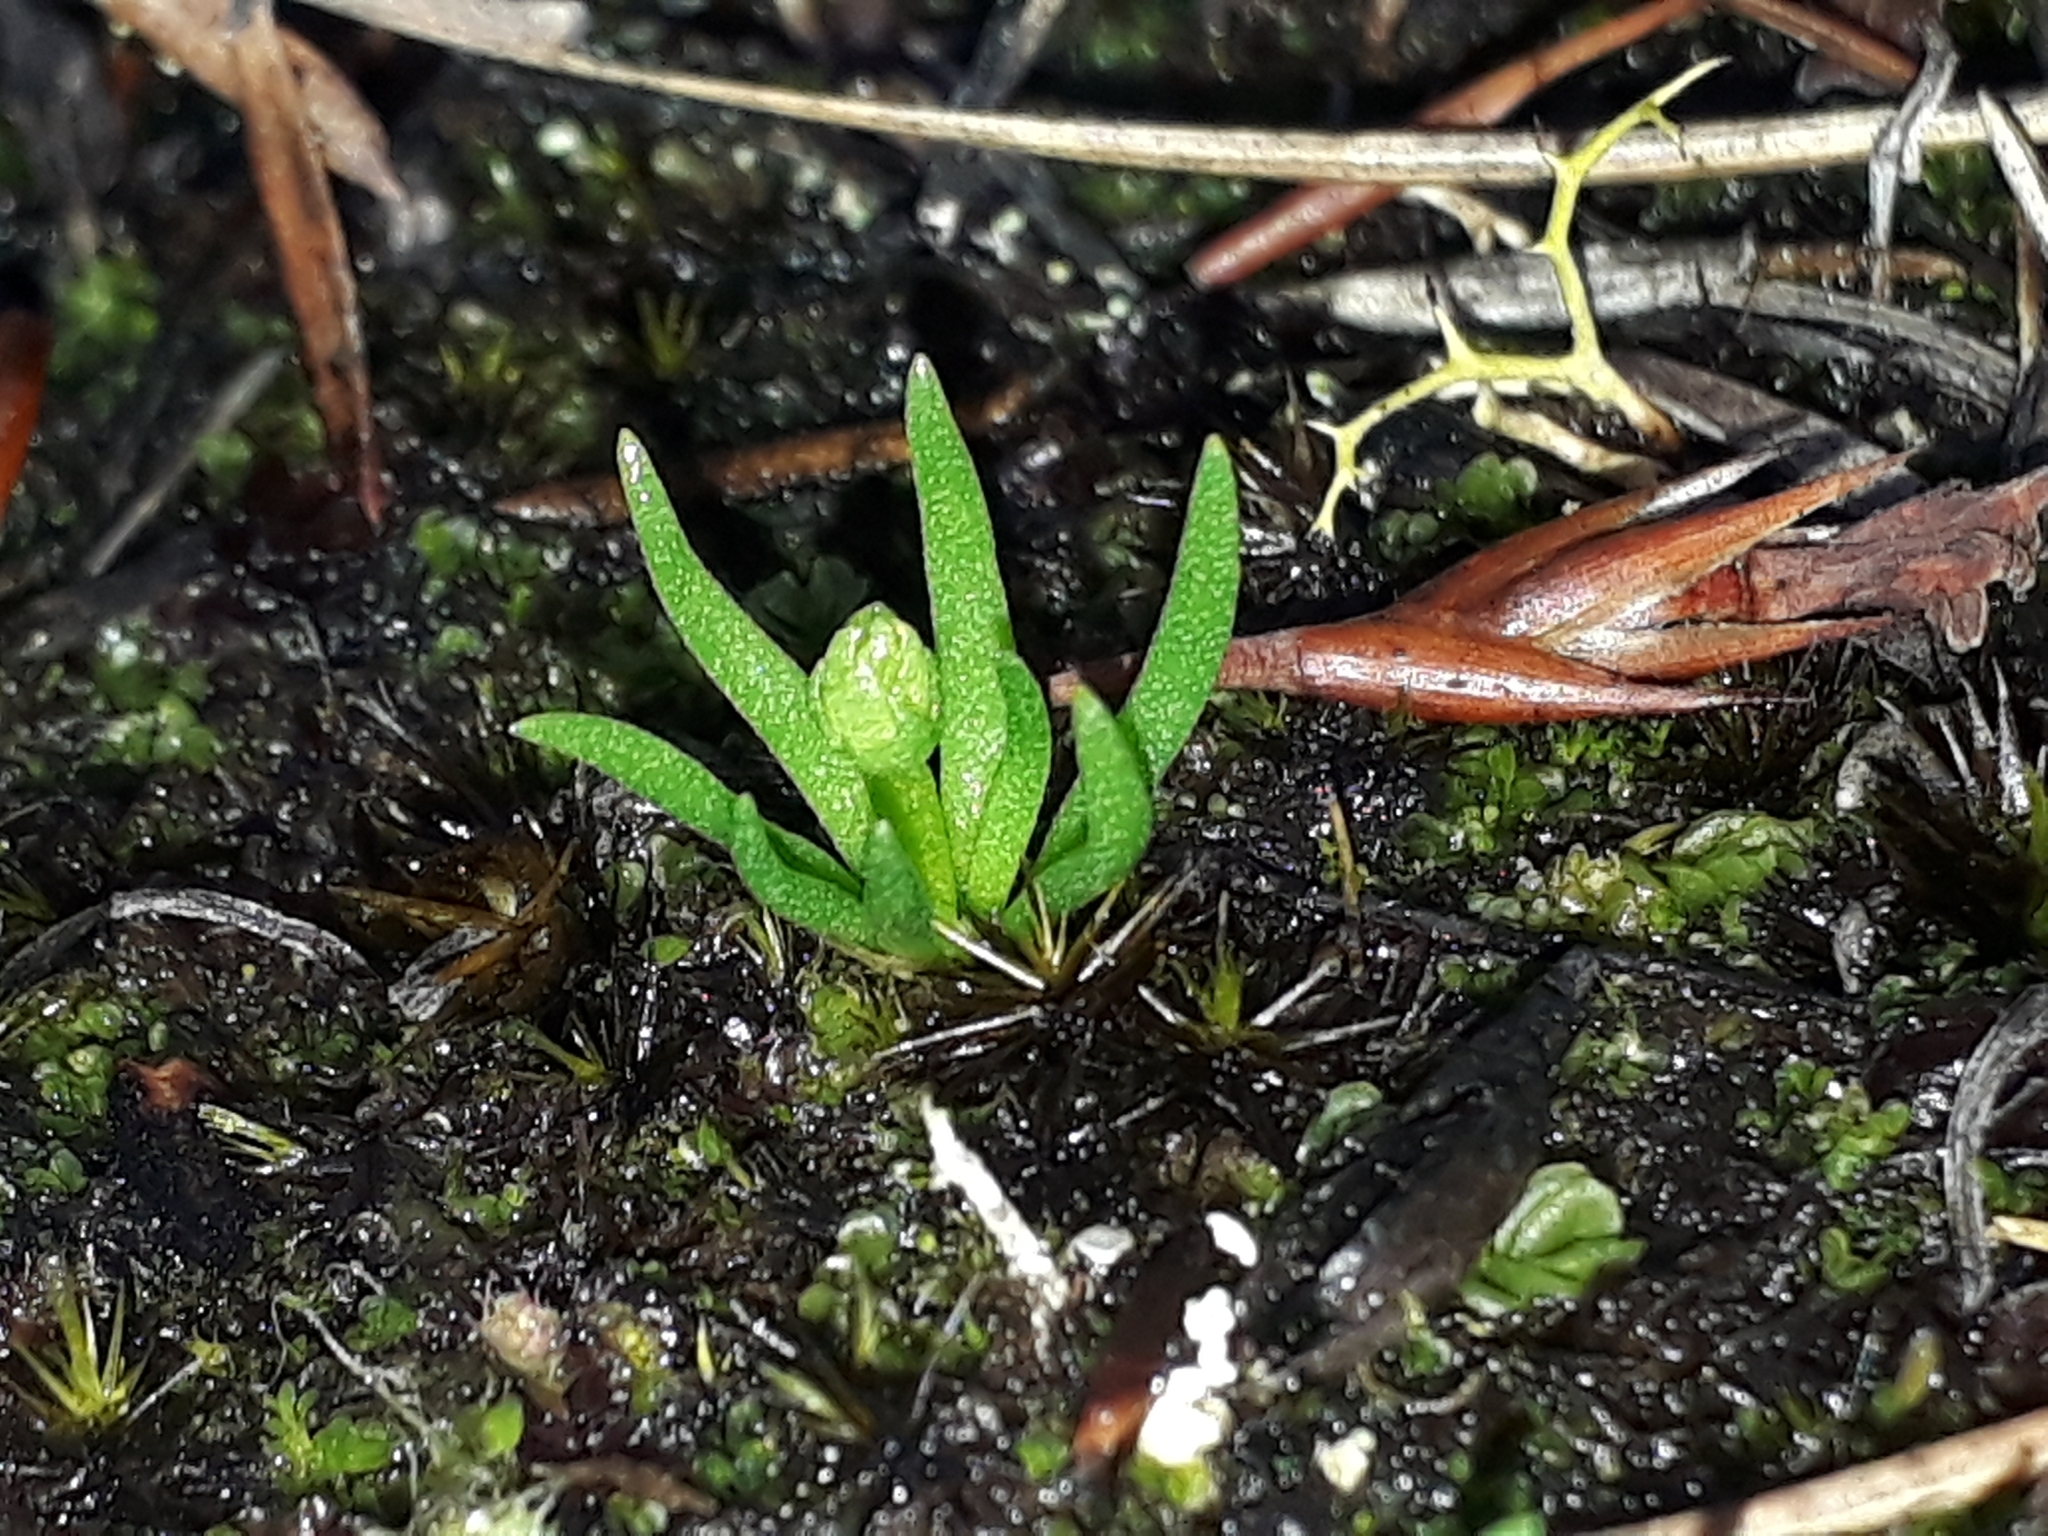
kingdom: Plantae
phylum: Tracheophyta
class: Lycopodiopsida
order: Lycopodiales
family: Lycopodiaceae
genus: Phylloglossum
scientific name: Phylloglossum drummondii
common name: Pigmy-club-moss
